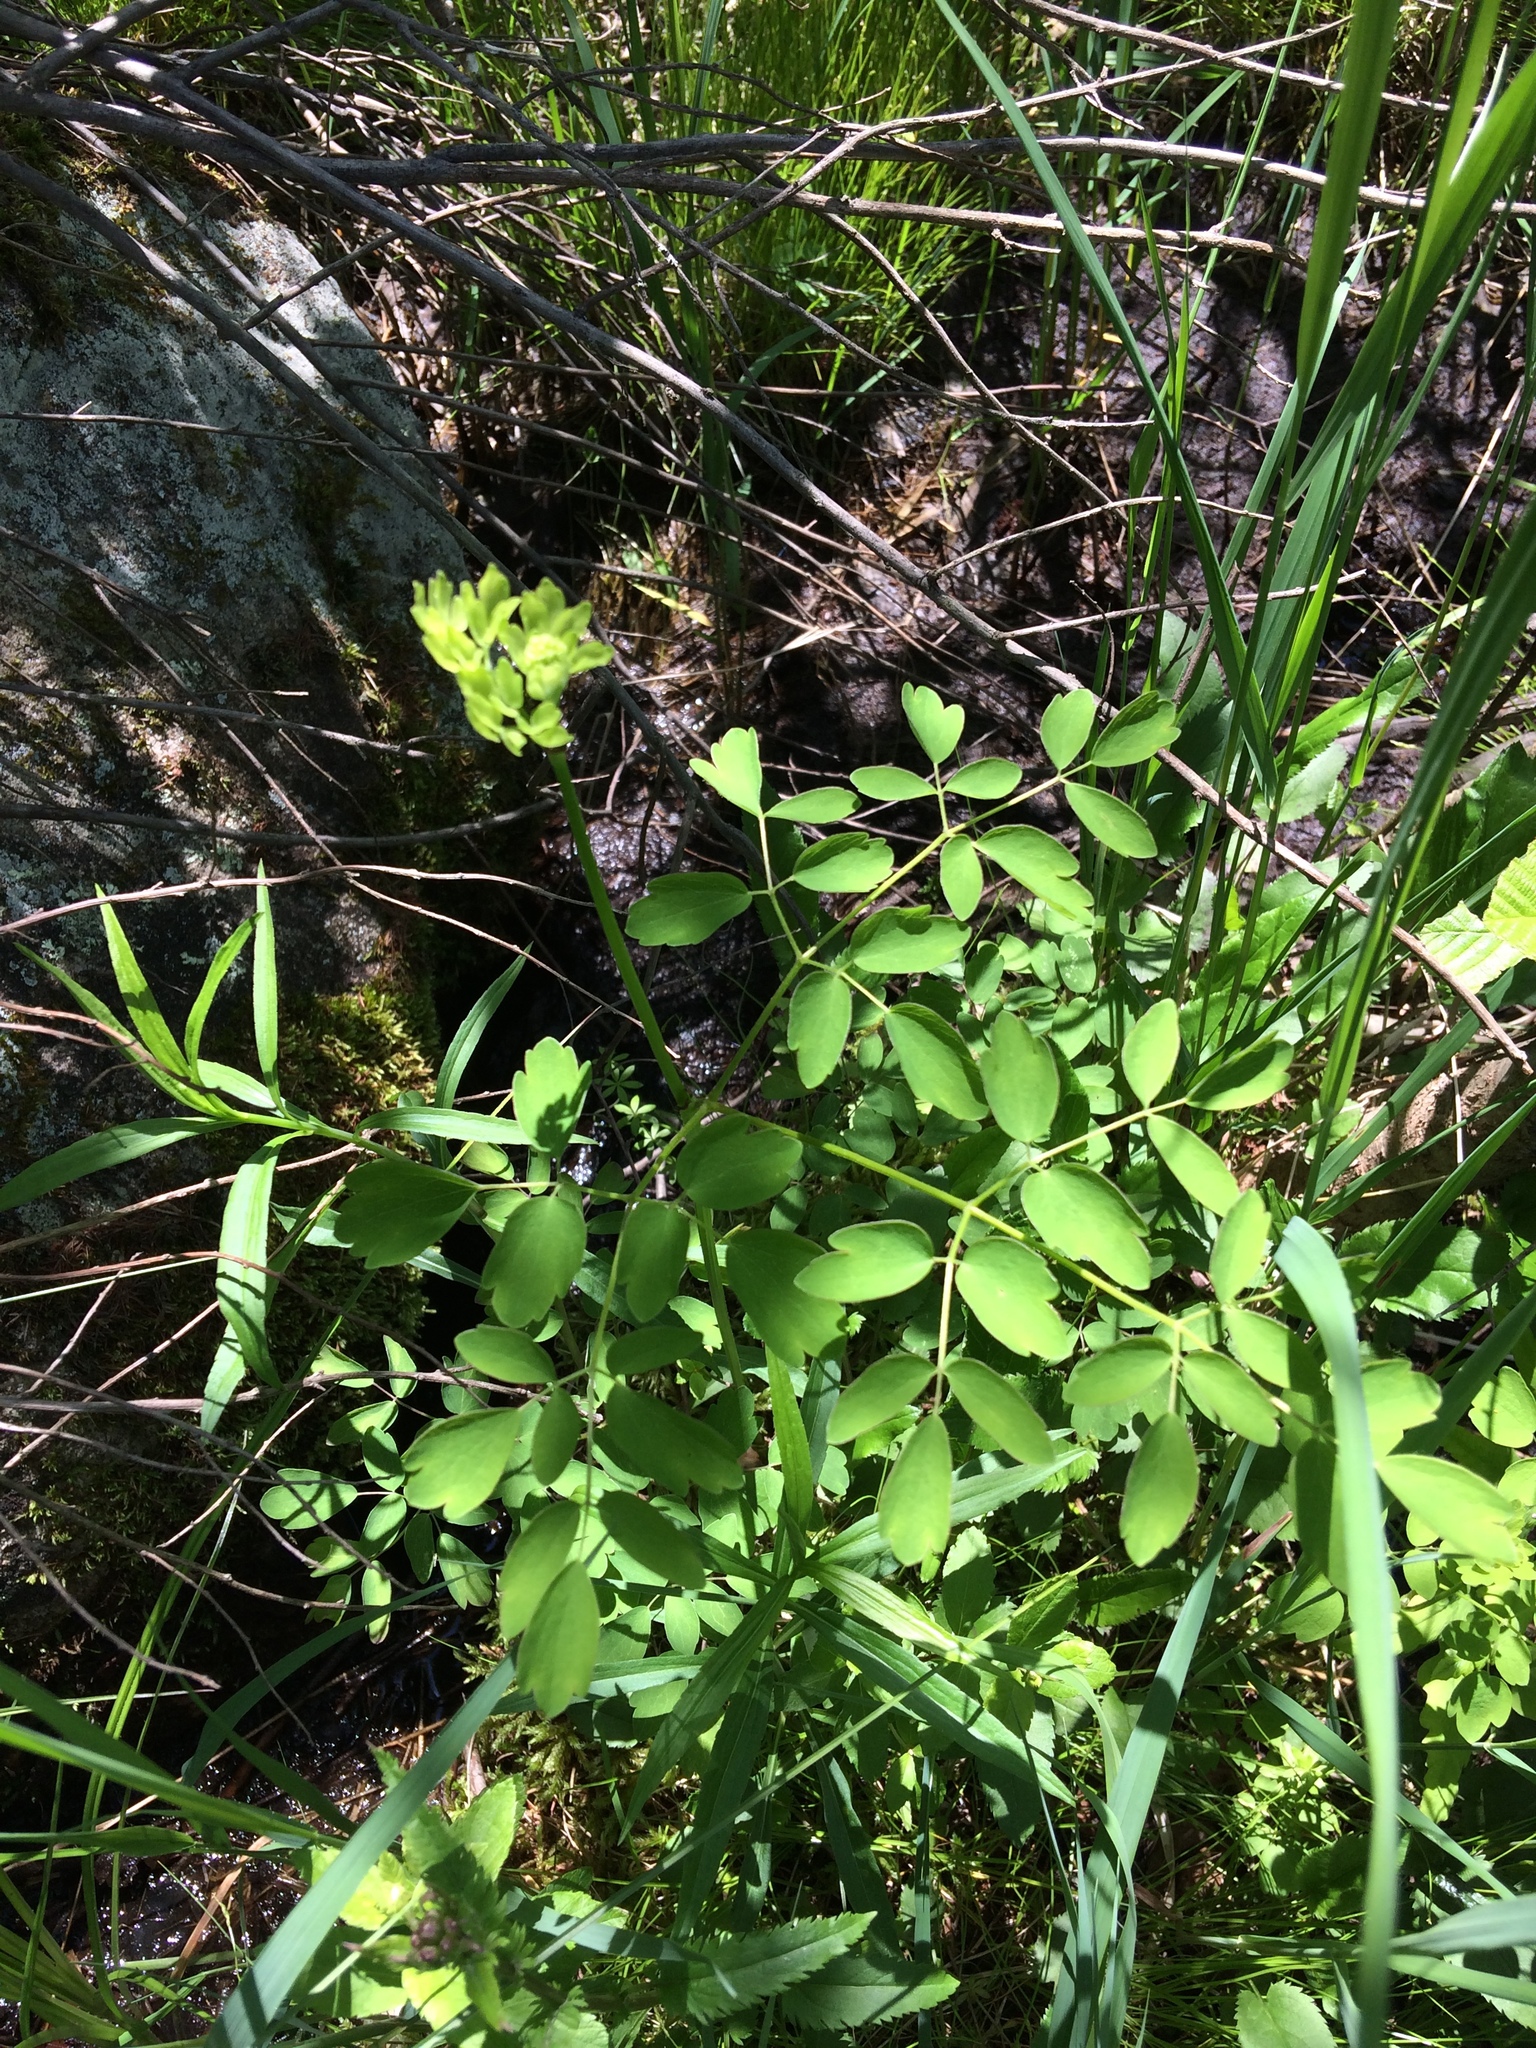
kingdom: Plantae
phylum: Tracheophyta
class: Magnoliopsida
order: Ranunculales
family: Ranunculaceae
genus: Thalictrum
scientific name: Thalictrum pubescens
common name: King-of-the-meadow
